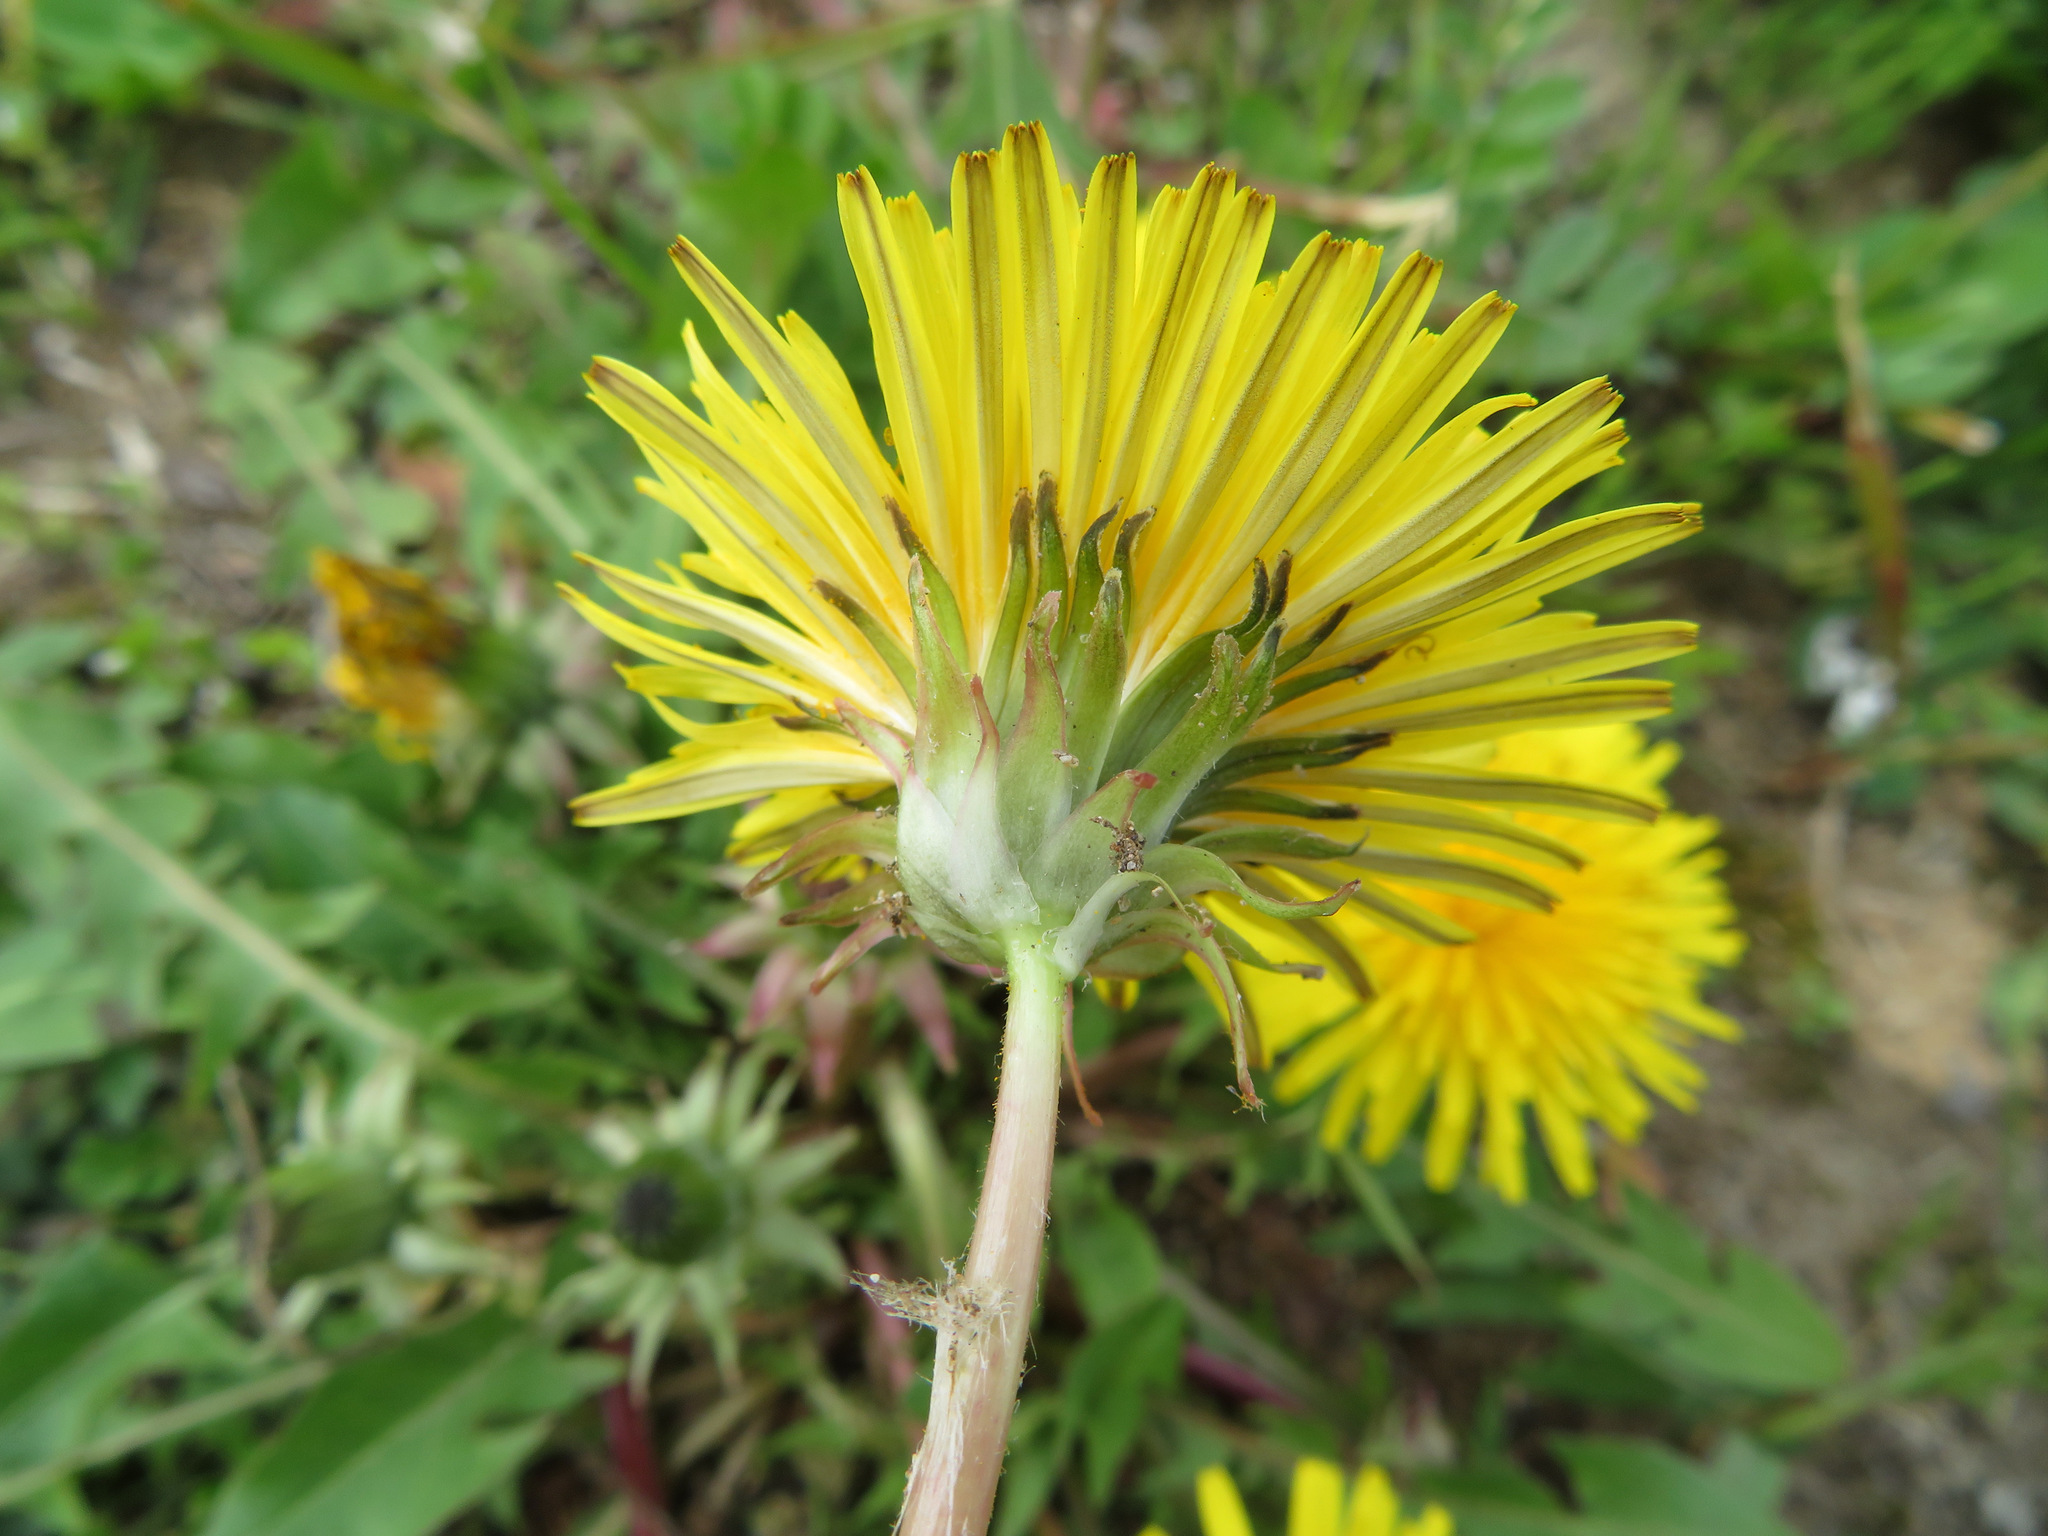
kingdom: Plantae
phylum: Tracheophyta
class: Magnoliopsida
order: Asterales
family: Asteraceae
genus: Taraxacum
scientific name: Taraxacum officinale
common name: Common dandelion
